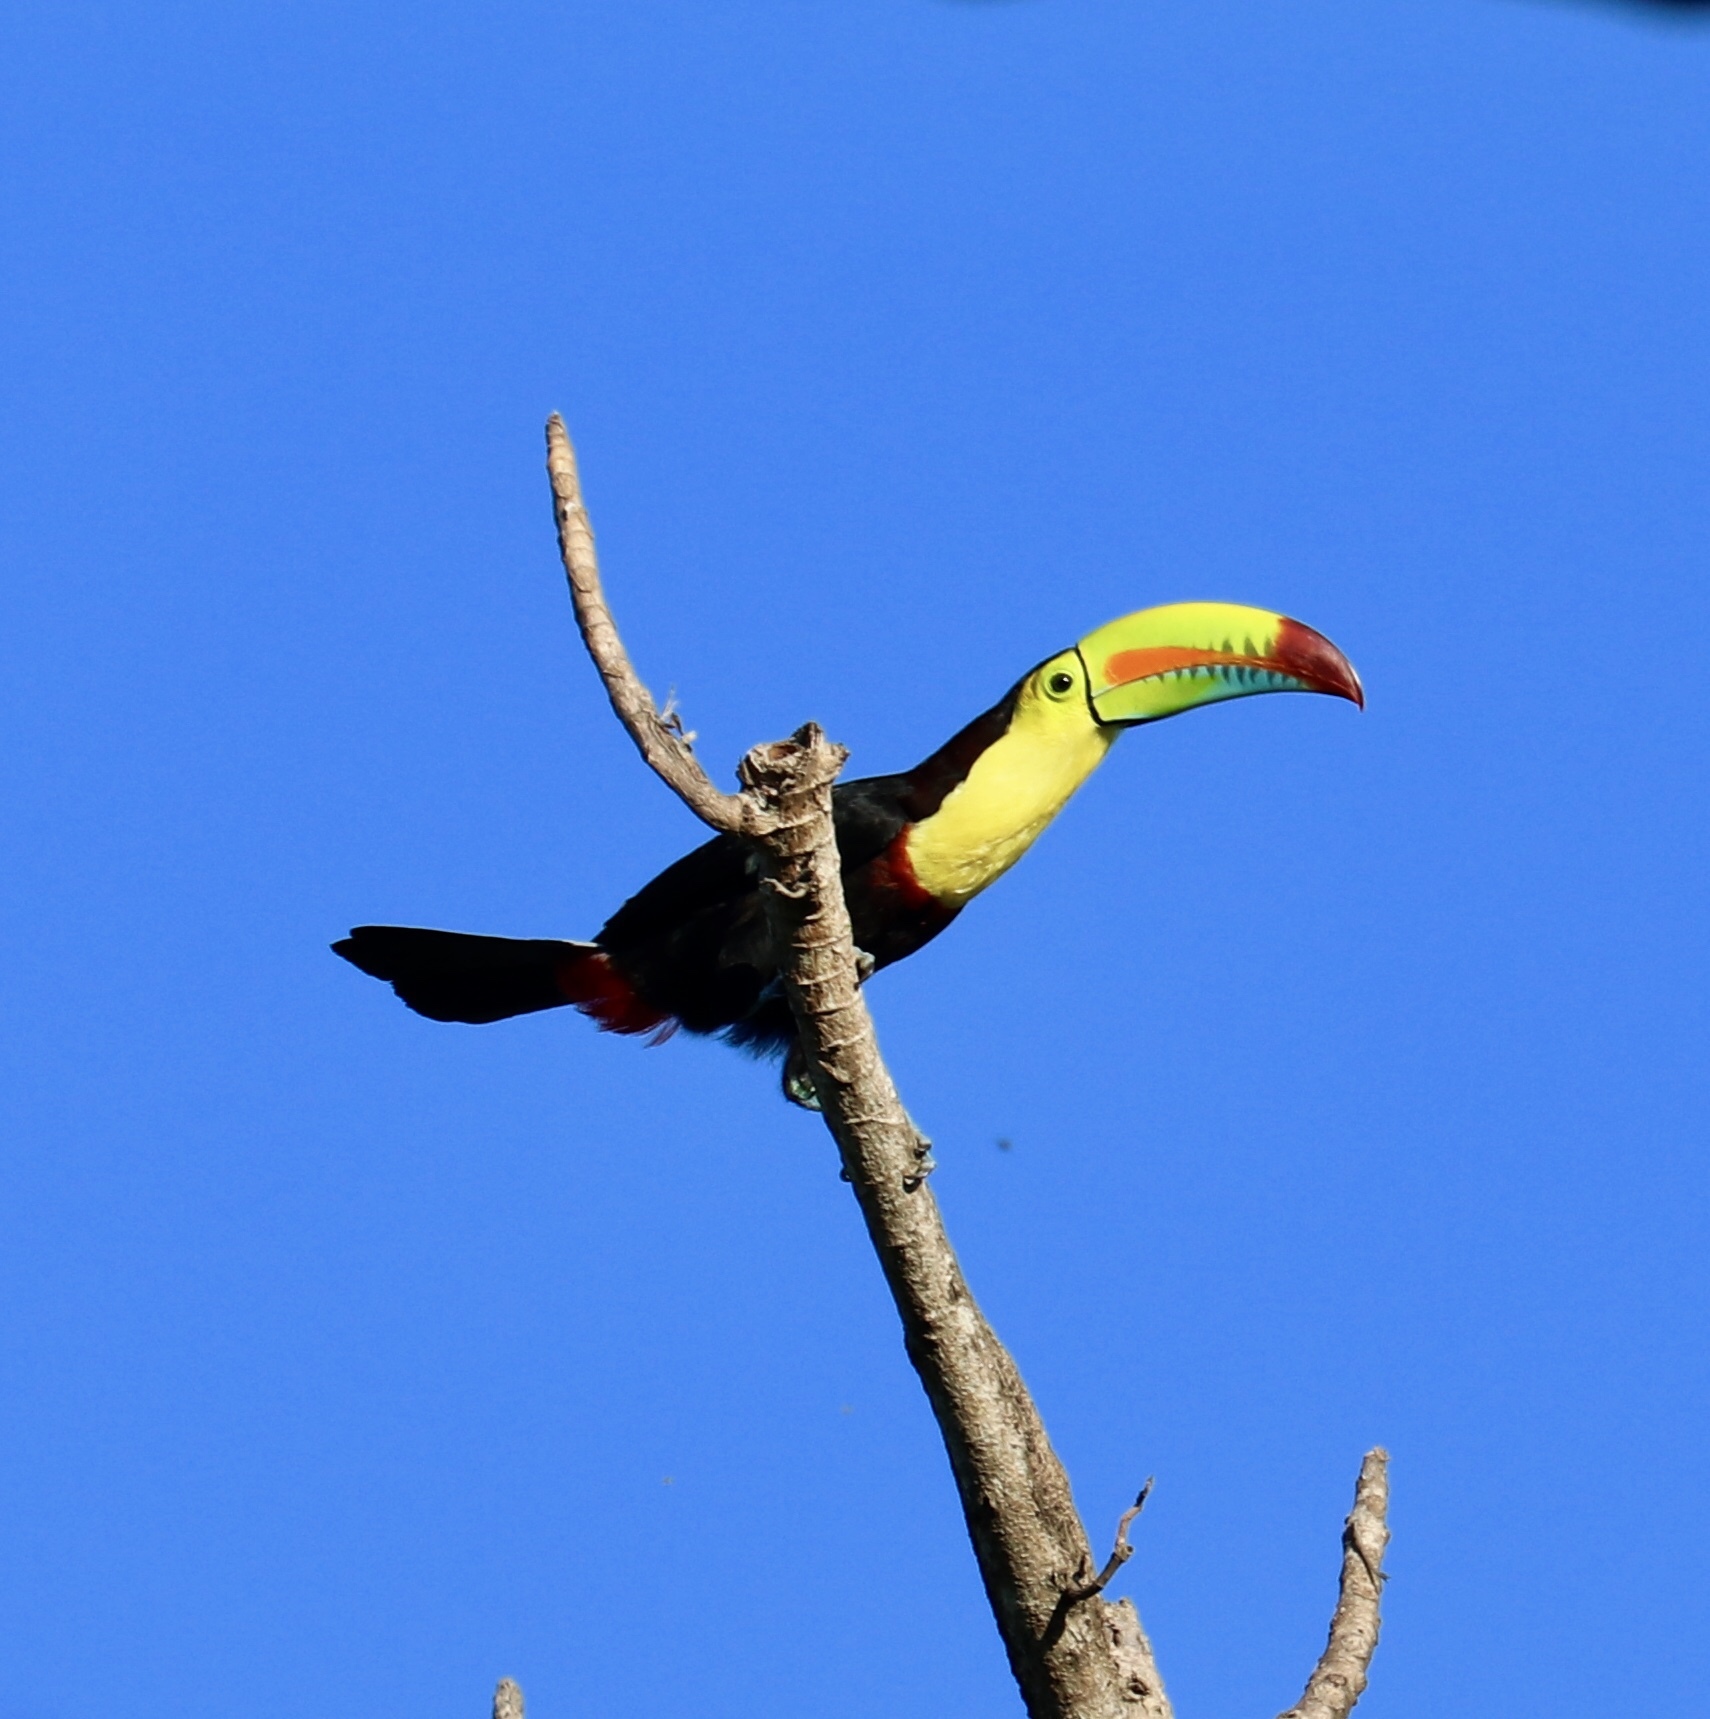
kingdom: Animalia
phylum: Chordata
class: Aves
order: Piciformes
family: Ramphastidae
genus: Ramphastos
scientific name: Ramphastos sulfuratus
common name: Keel-billed toucan
